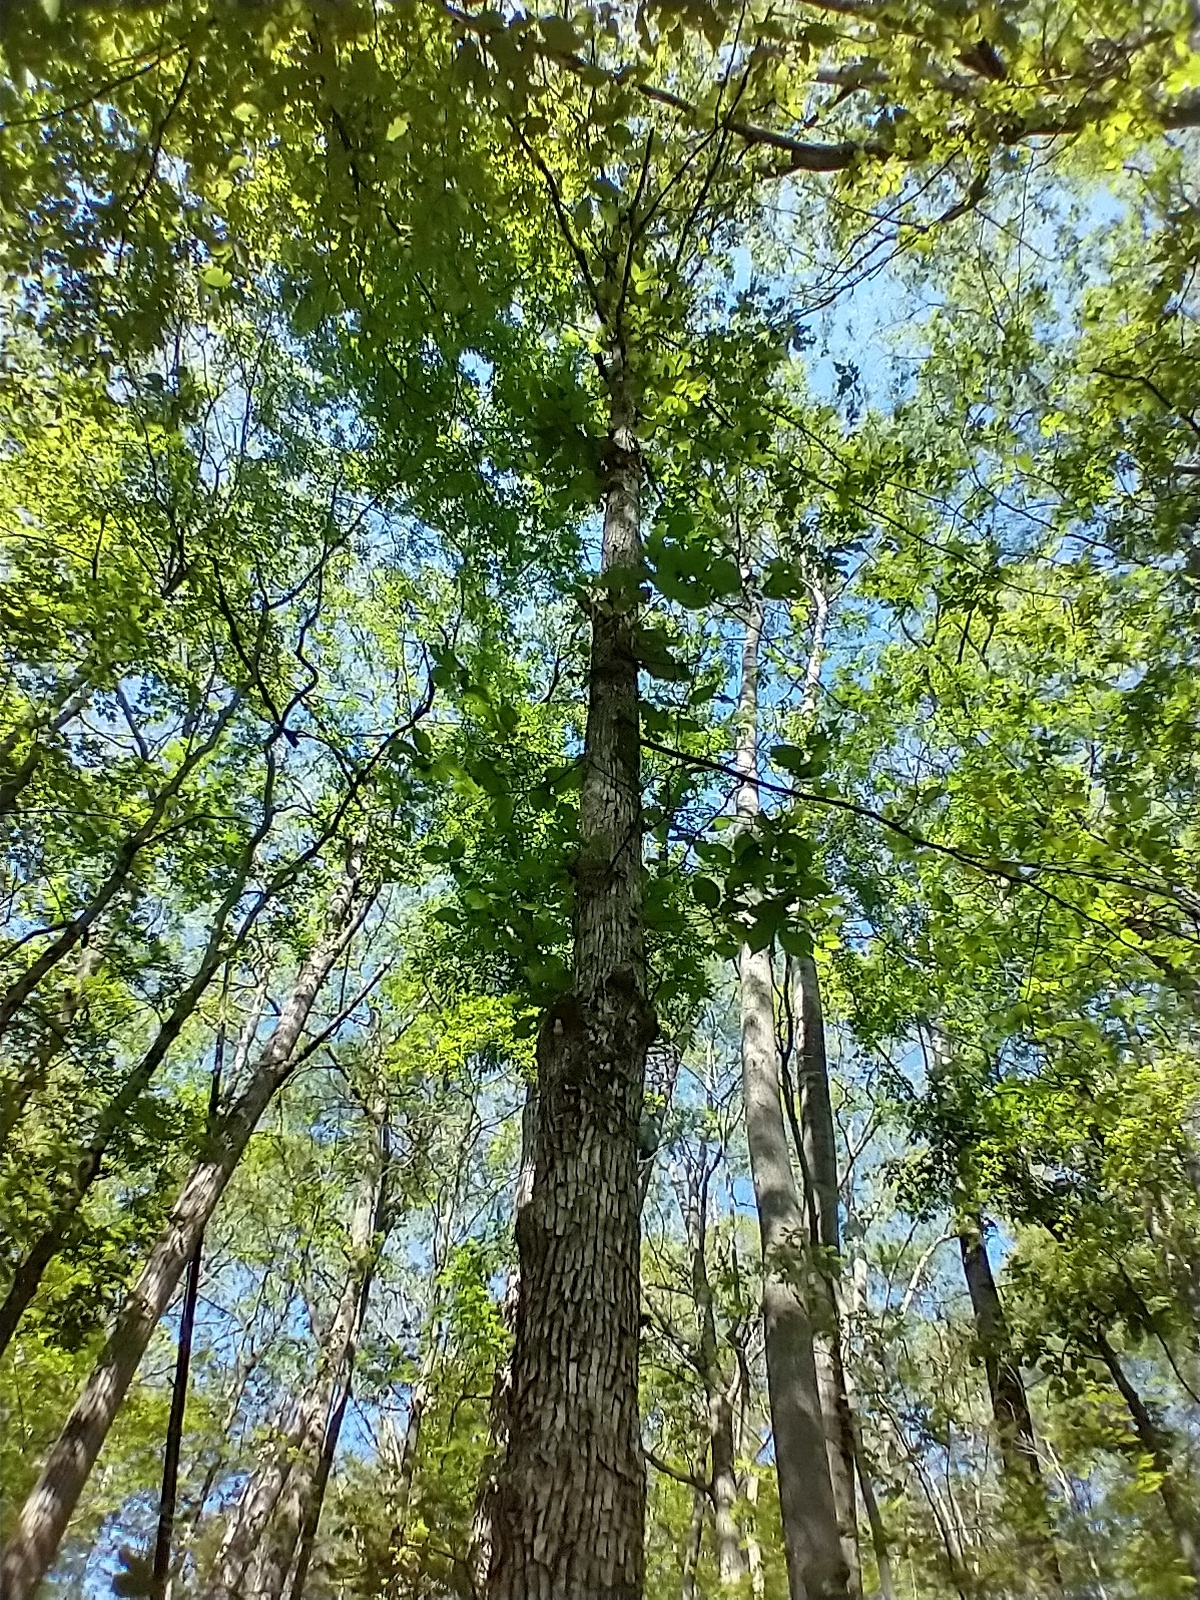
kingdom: Plantae
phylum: Tracheophyta
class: Magnoliopsida
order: Fagales
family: Betulaceae
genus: Ostrya
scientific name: Ostrya virginiana
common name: Ironwood
